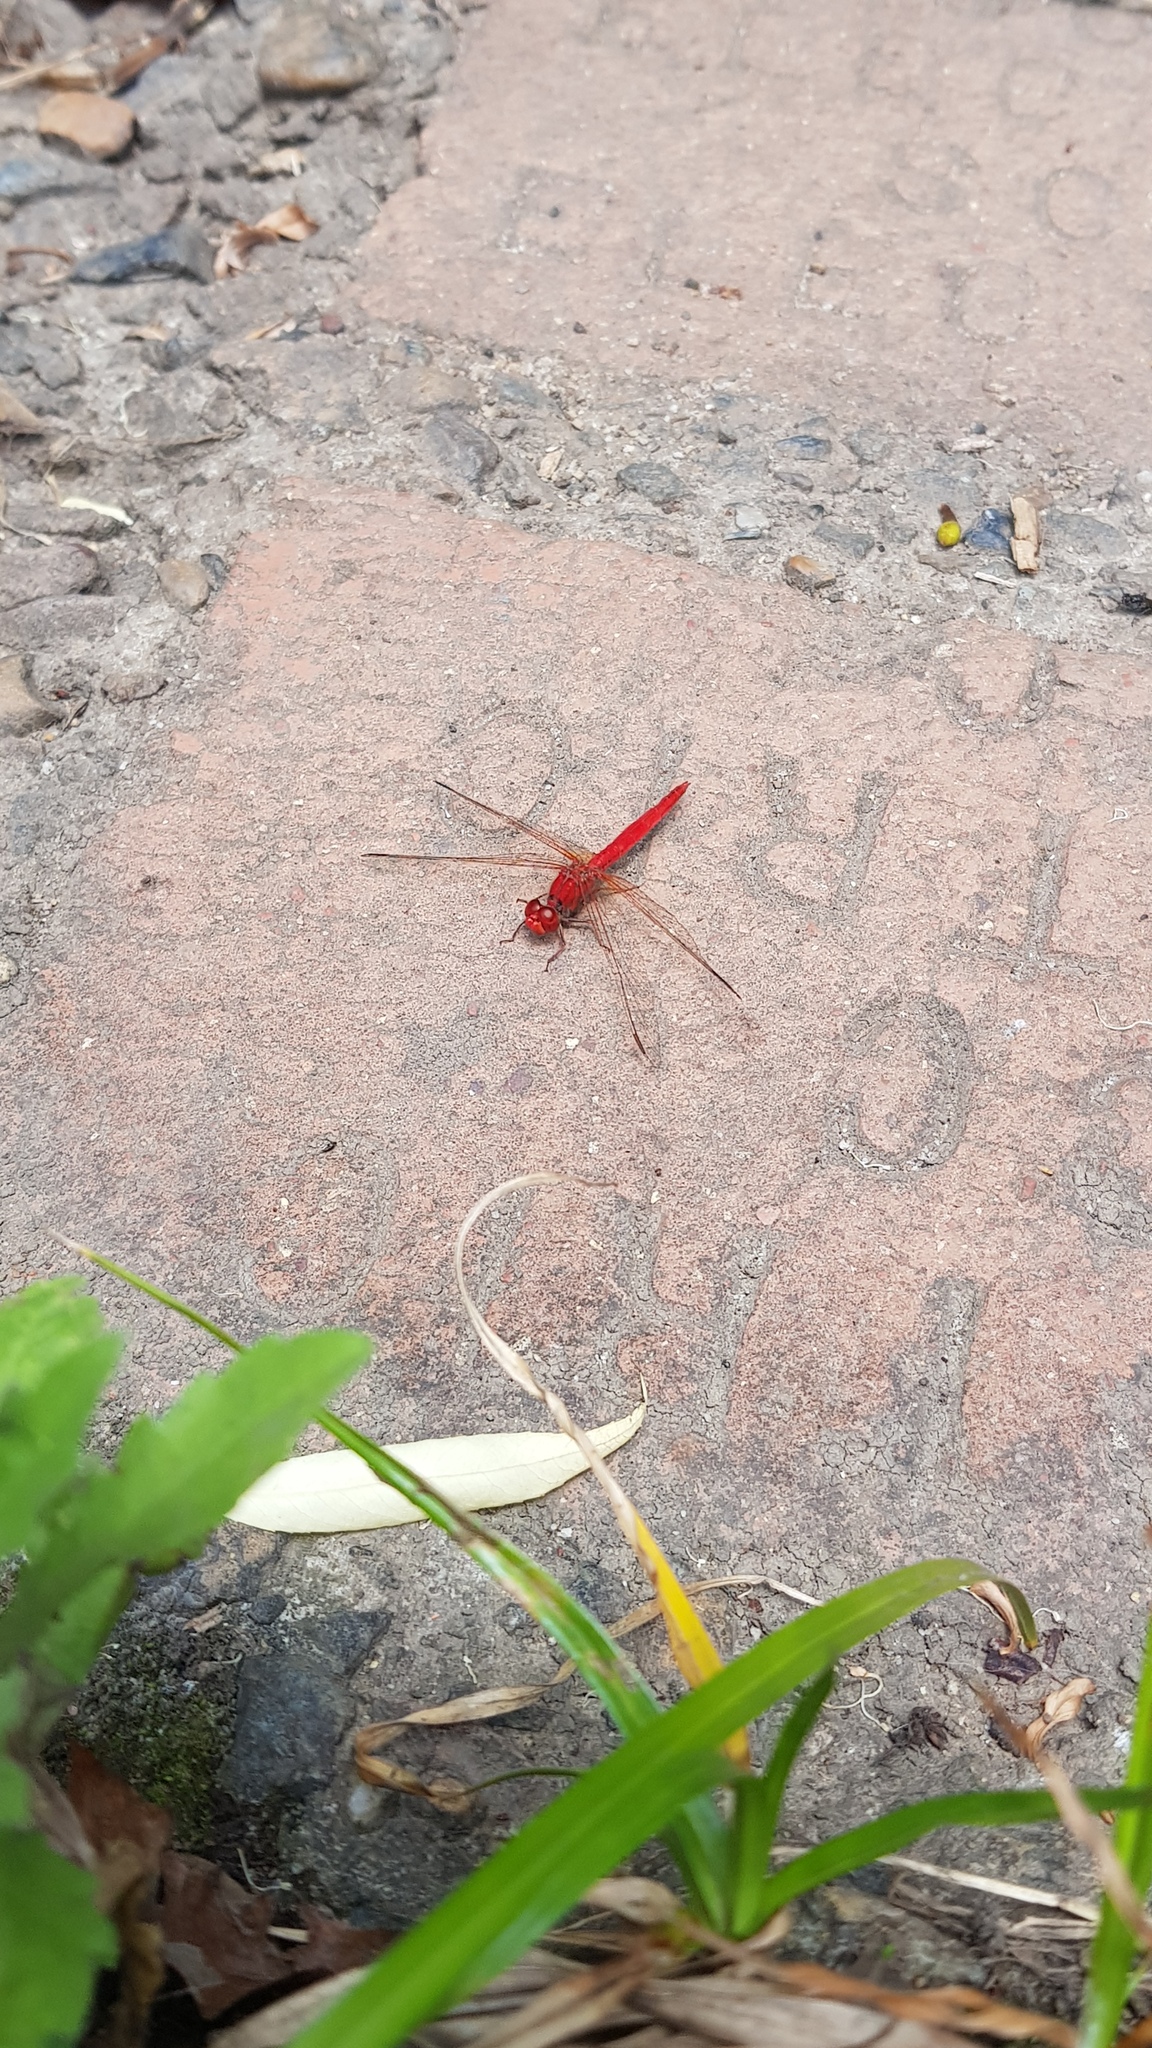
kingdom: Animalia
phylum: Arthropoda
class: Insecta
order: Odonata
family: Libellulidae
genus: Diplacodes
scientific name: Diplacodes haematodes
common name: Scarlet percher
